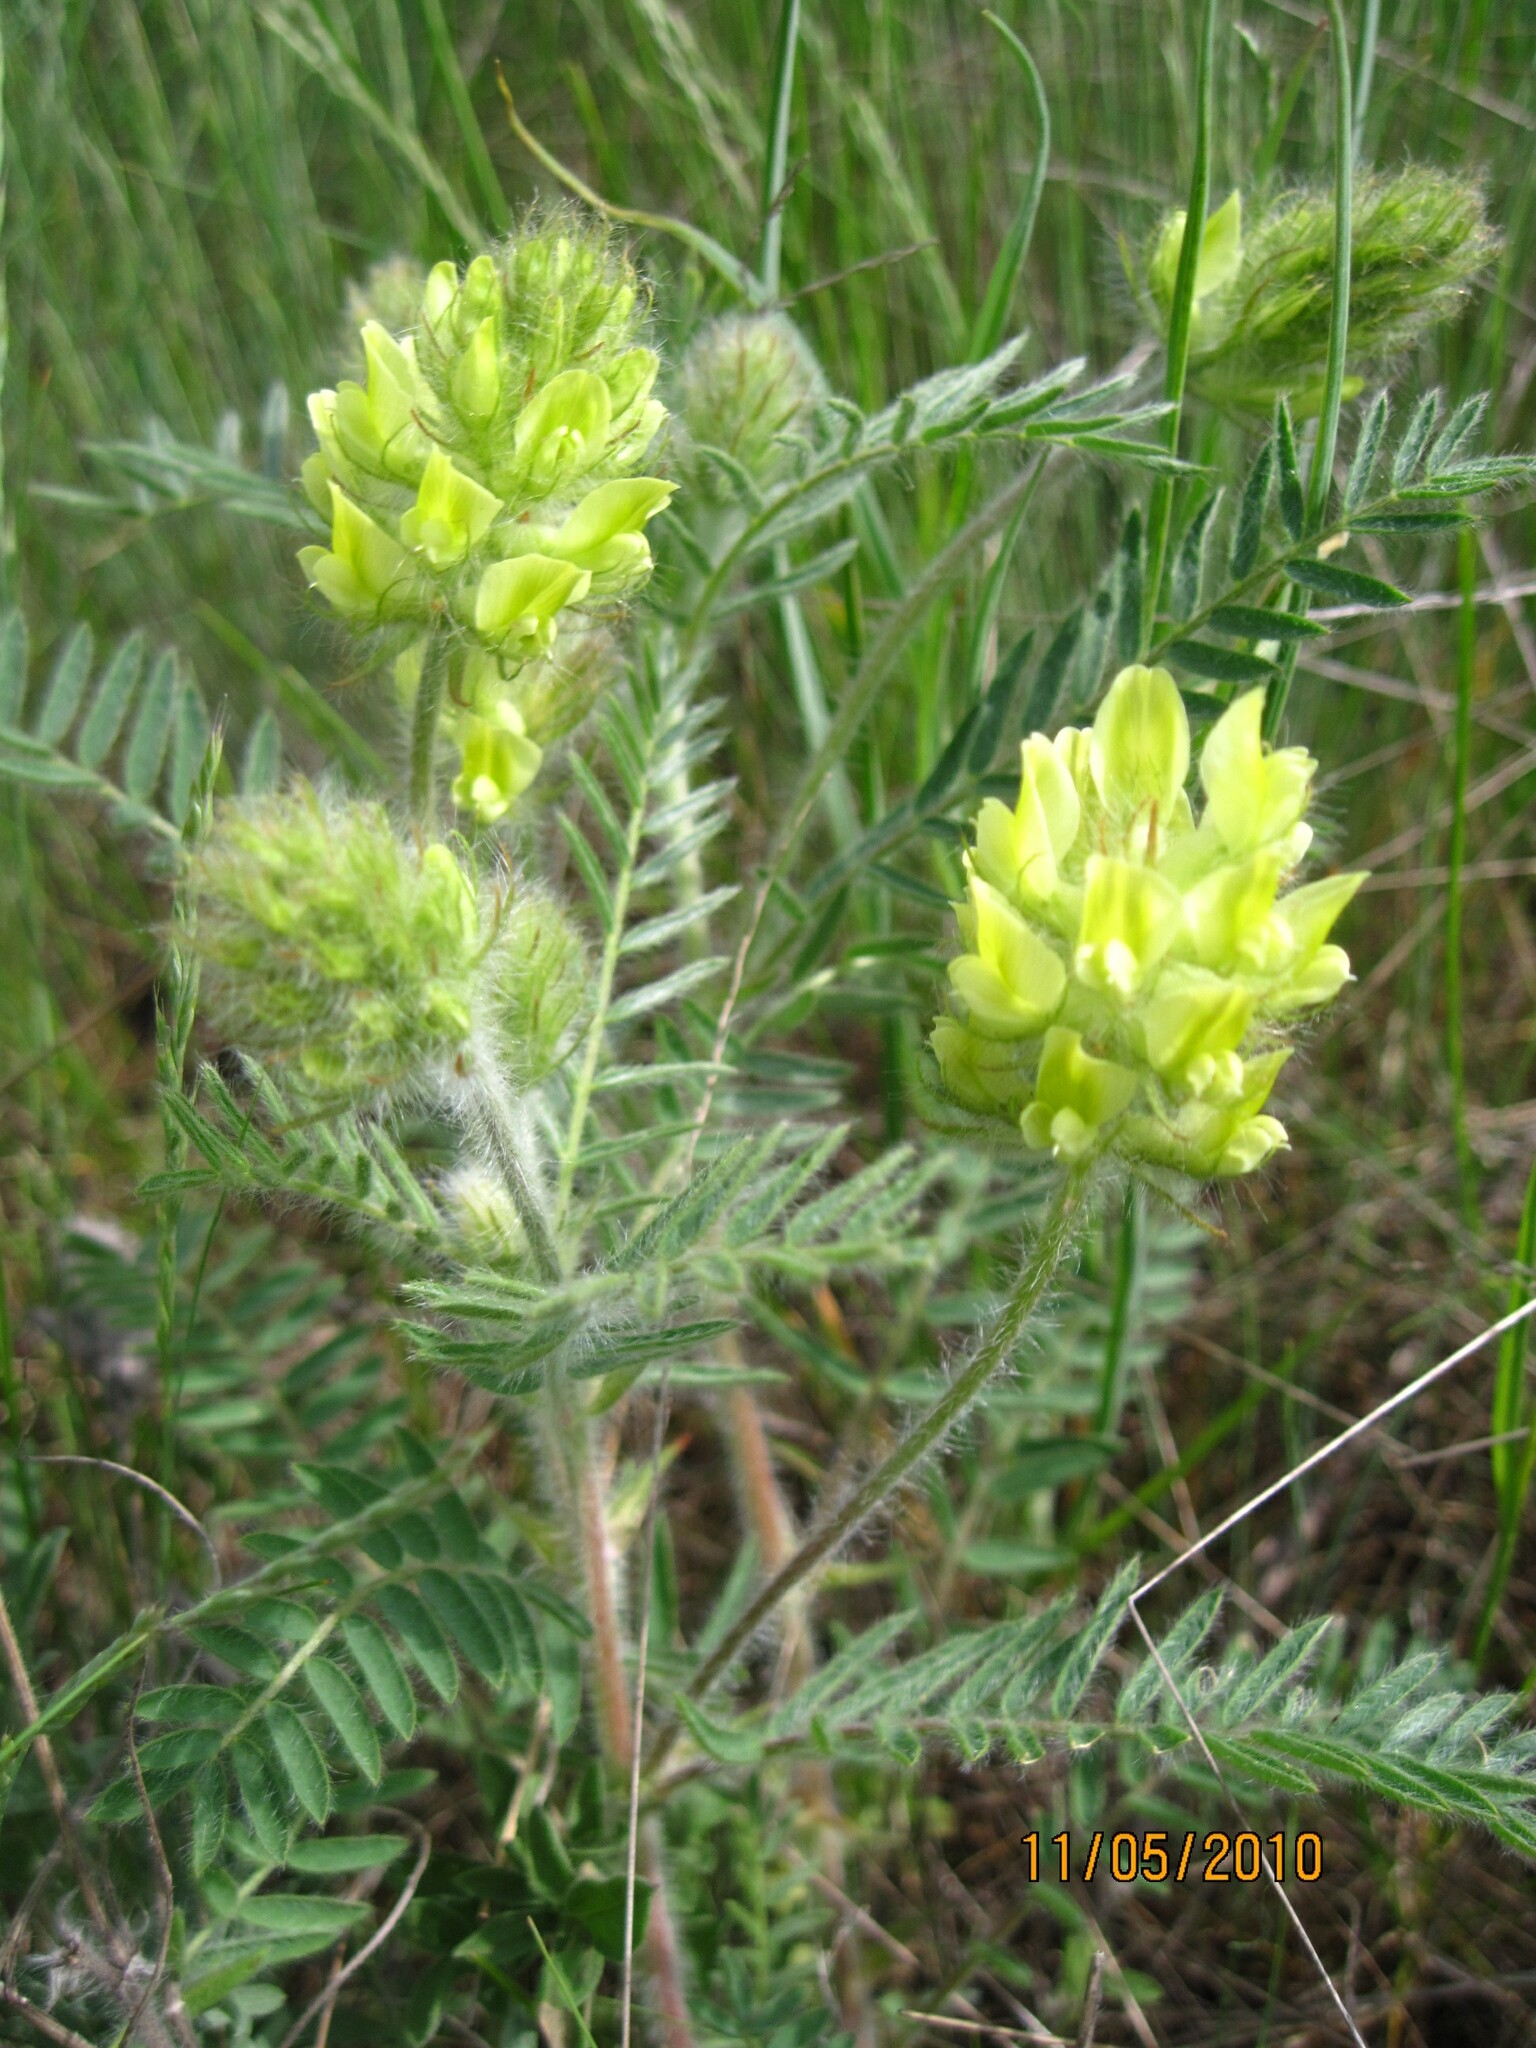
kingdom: Plantae
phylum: Tracheophyta
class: Magnoliopsida
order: Fabales
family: Fabaceae
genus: Oxytropis
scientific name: Oxytropis pilosa
